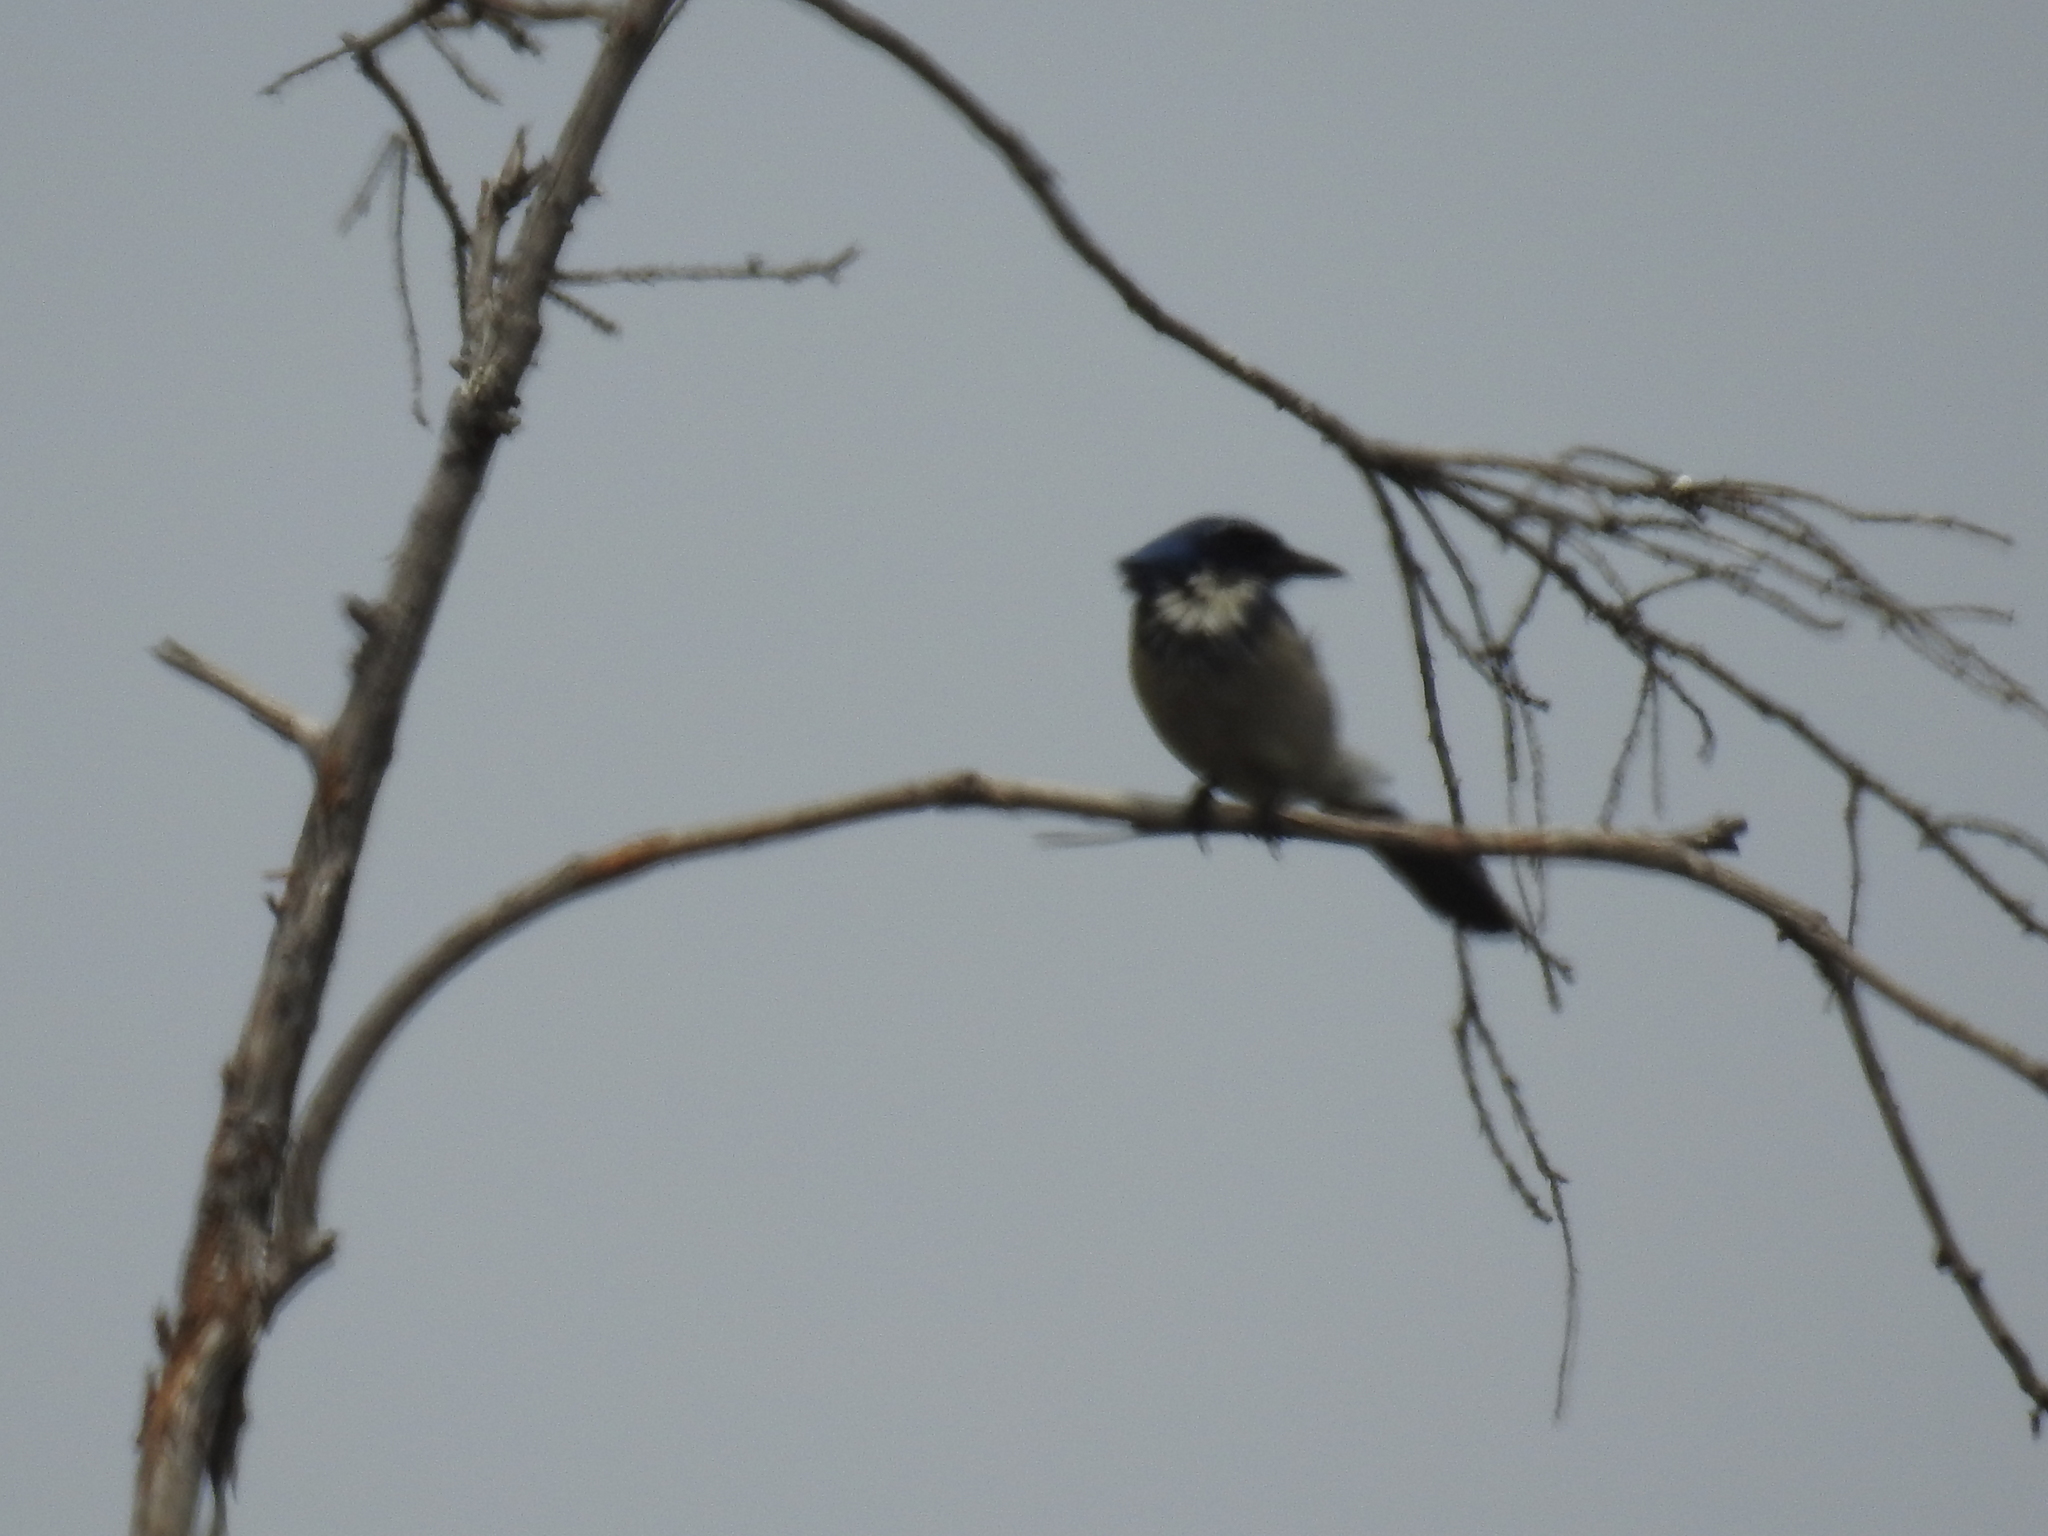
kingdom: Animalia
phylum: Chordata
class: Aves
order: Passeriformes
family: Corvidae
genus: Aphelocoma
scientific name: Aphelocoma californica
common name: California scrub-jay
